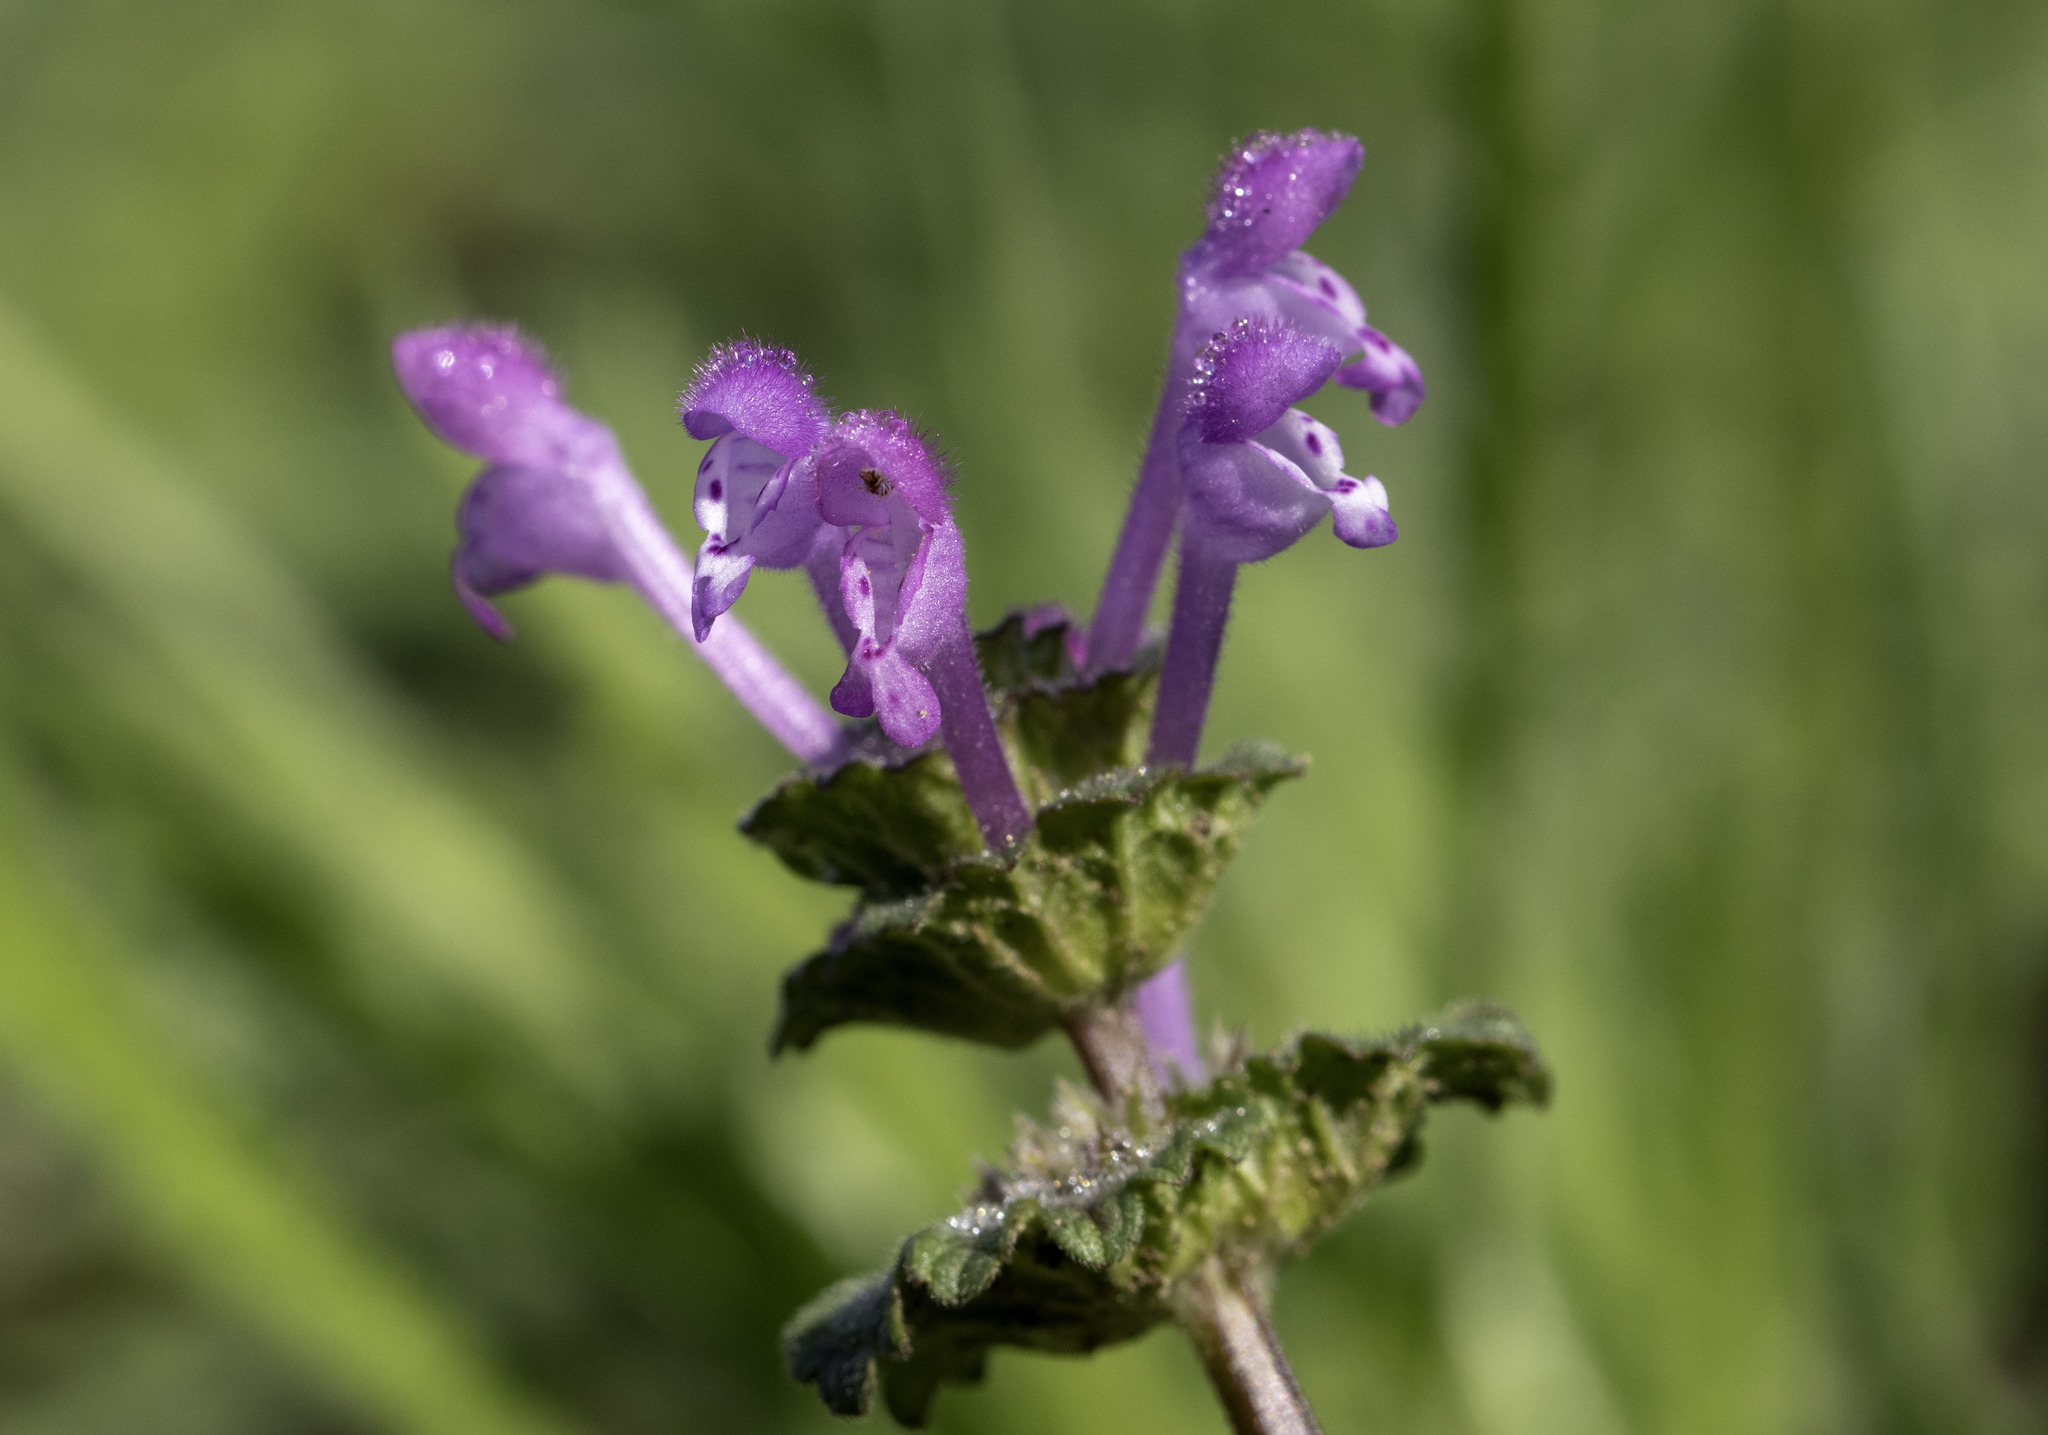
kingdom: Plantae
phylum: Tracheophyta
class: Magnoliopsida
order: Lamiales
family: Lamiaceae
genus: Lamium
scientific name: Lamium amplexicaule
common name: Henbit dead-nettle
